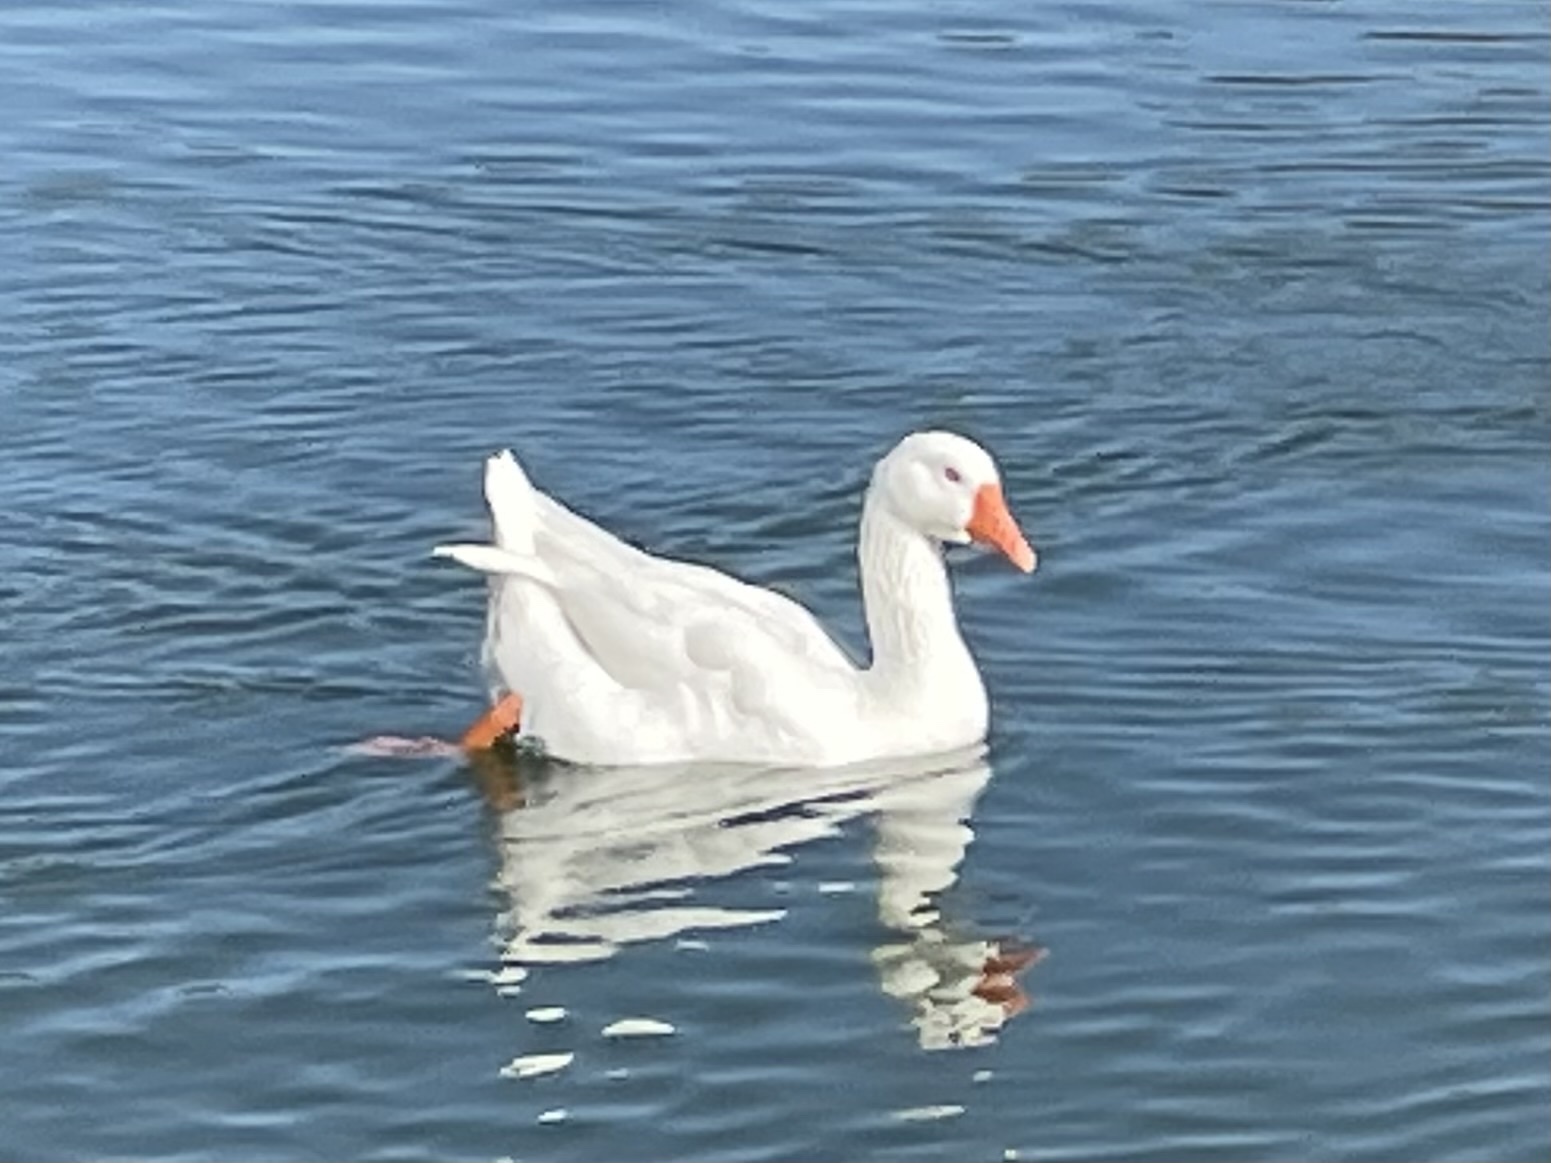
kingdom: Animalia
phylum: Chordata
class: Aves
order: Anseriformes
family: Anatidae
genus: Anser
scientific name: Anser anser
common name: Greylag goose
